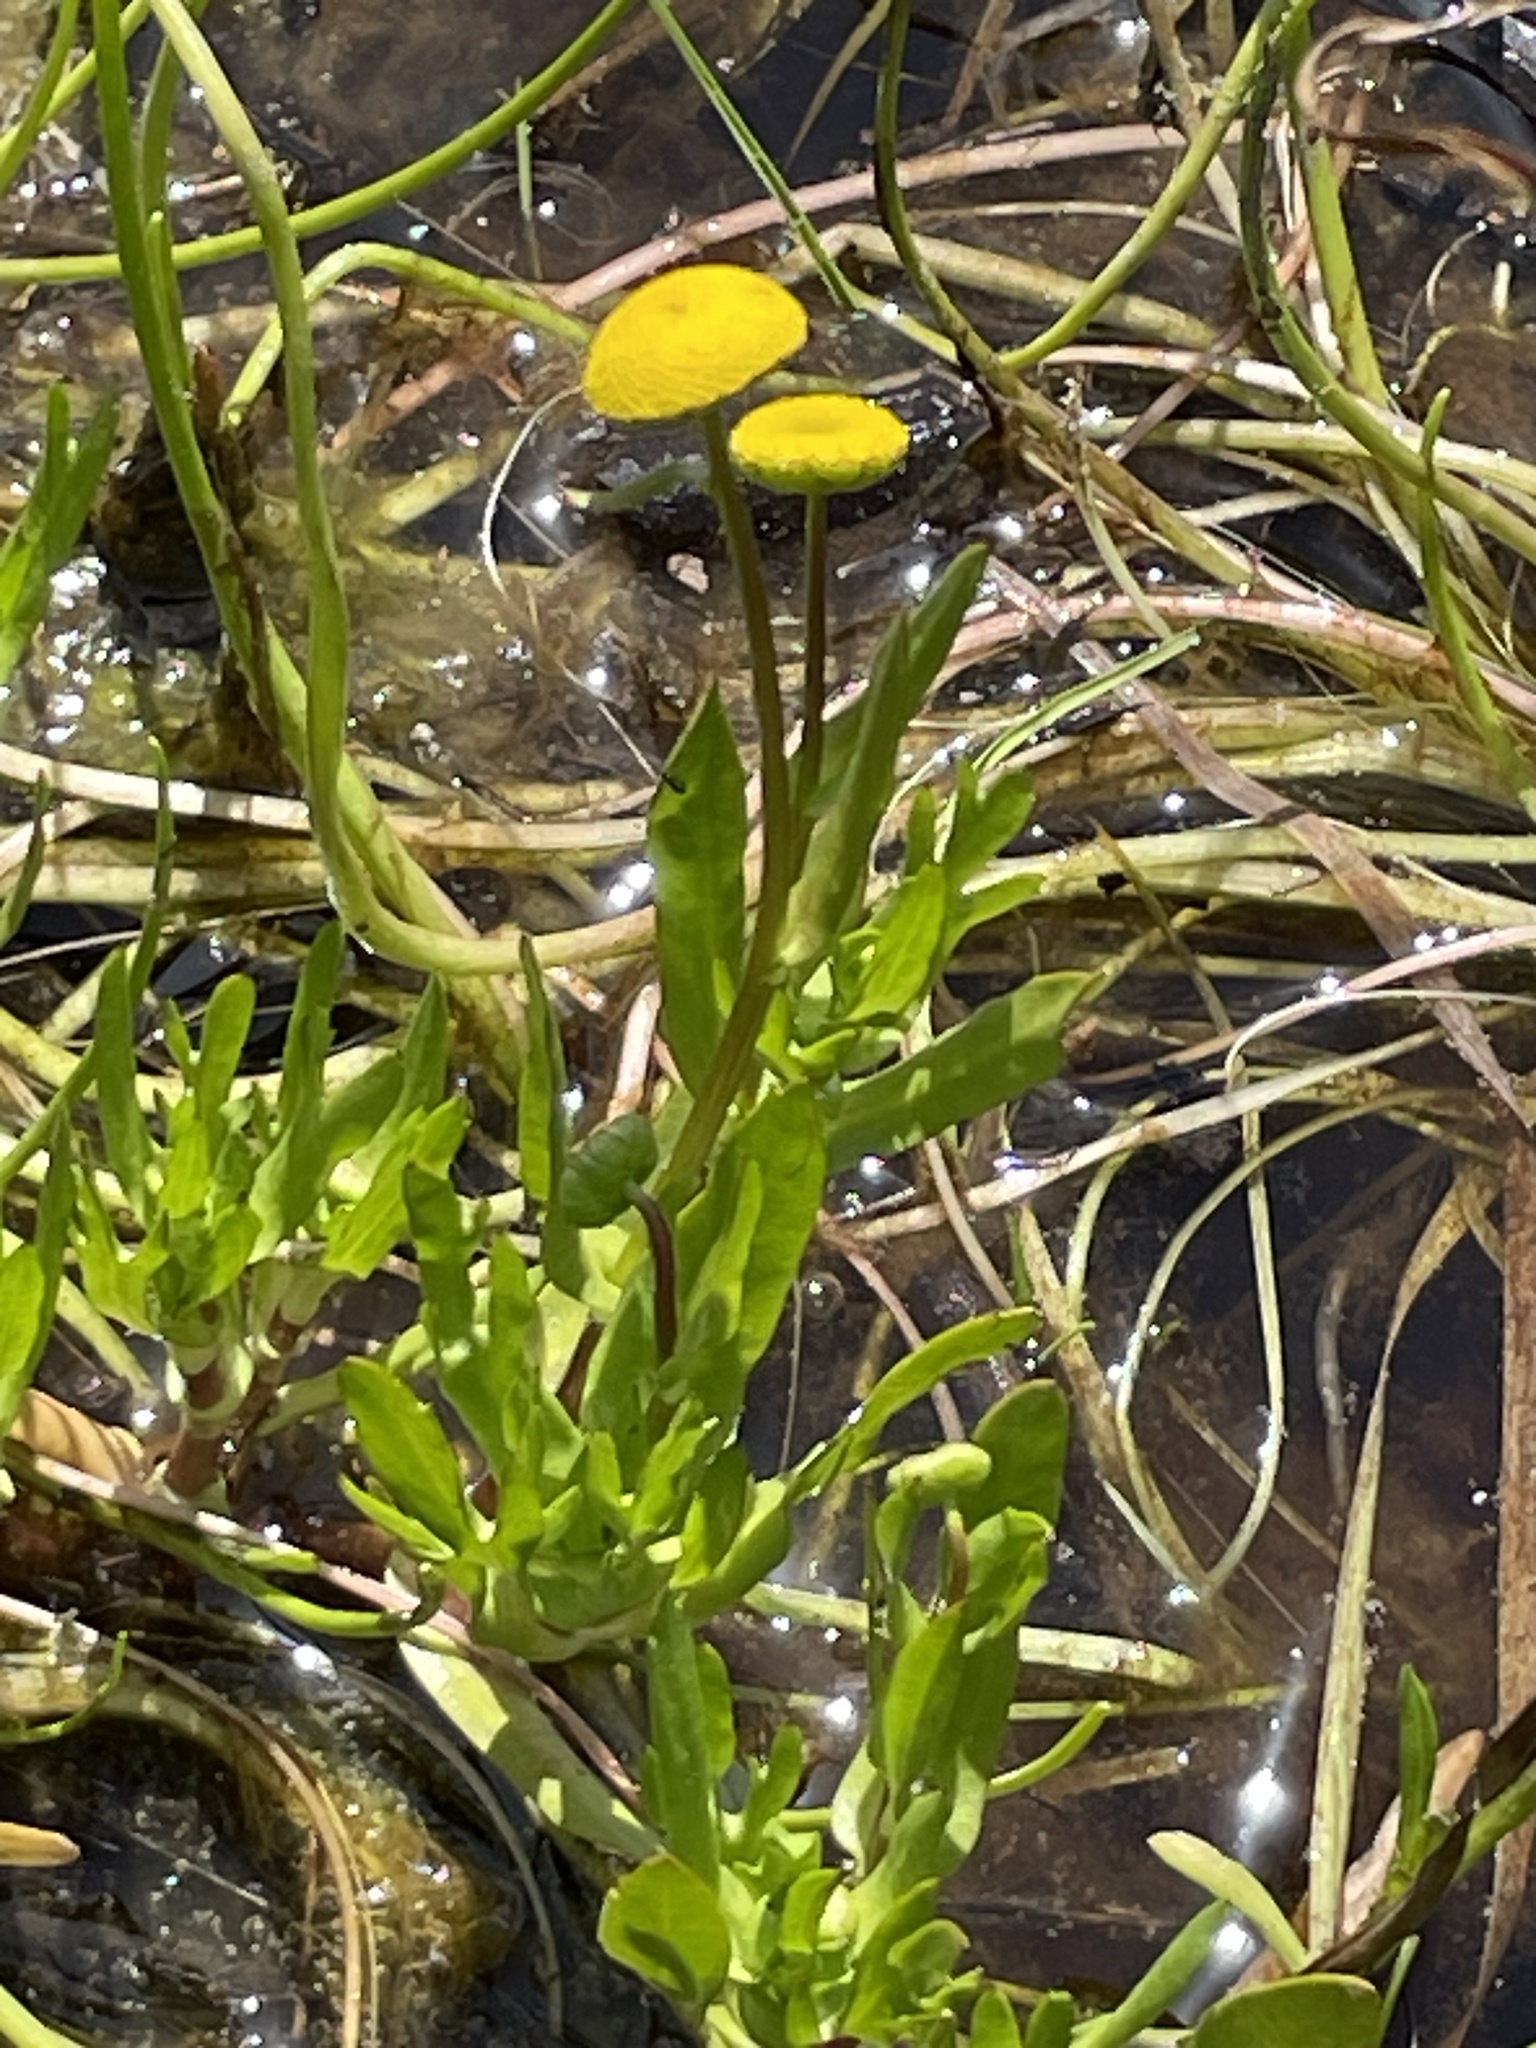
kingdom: Plantae
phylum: Tracheophyta
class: Magnoliopsida
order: Asterales
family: Asteraceae
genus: Cotula
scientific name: Cotula coronopifolia
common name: Buttonweed
